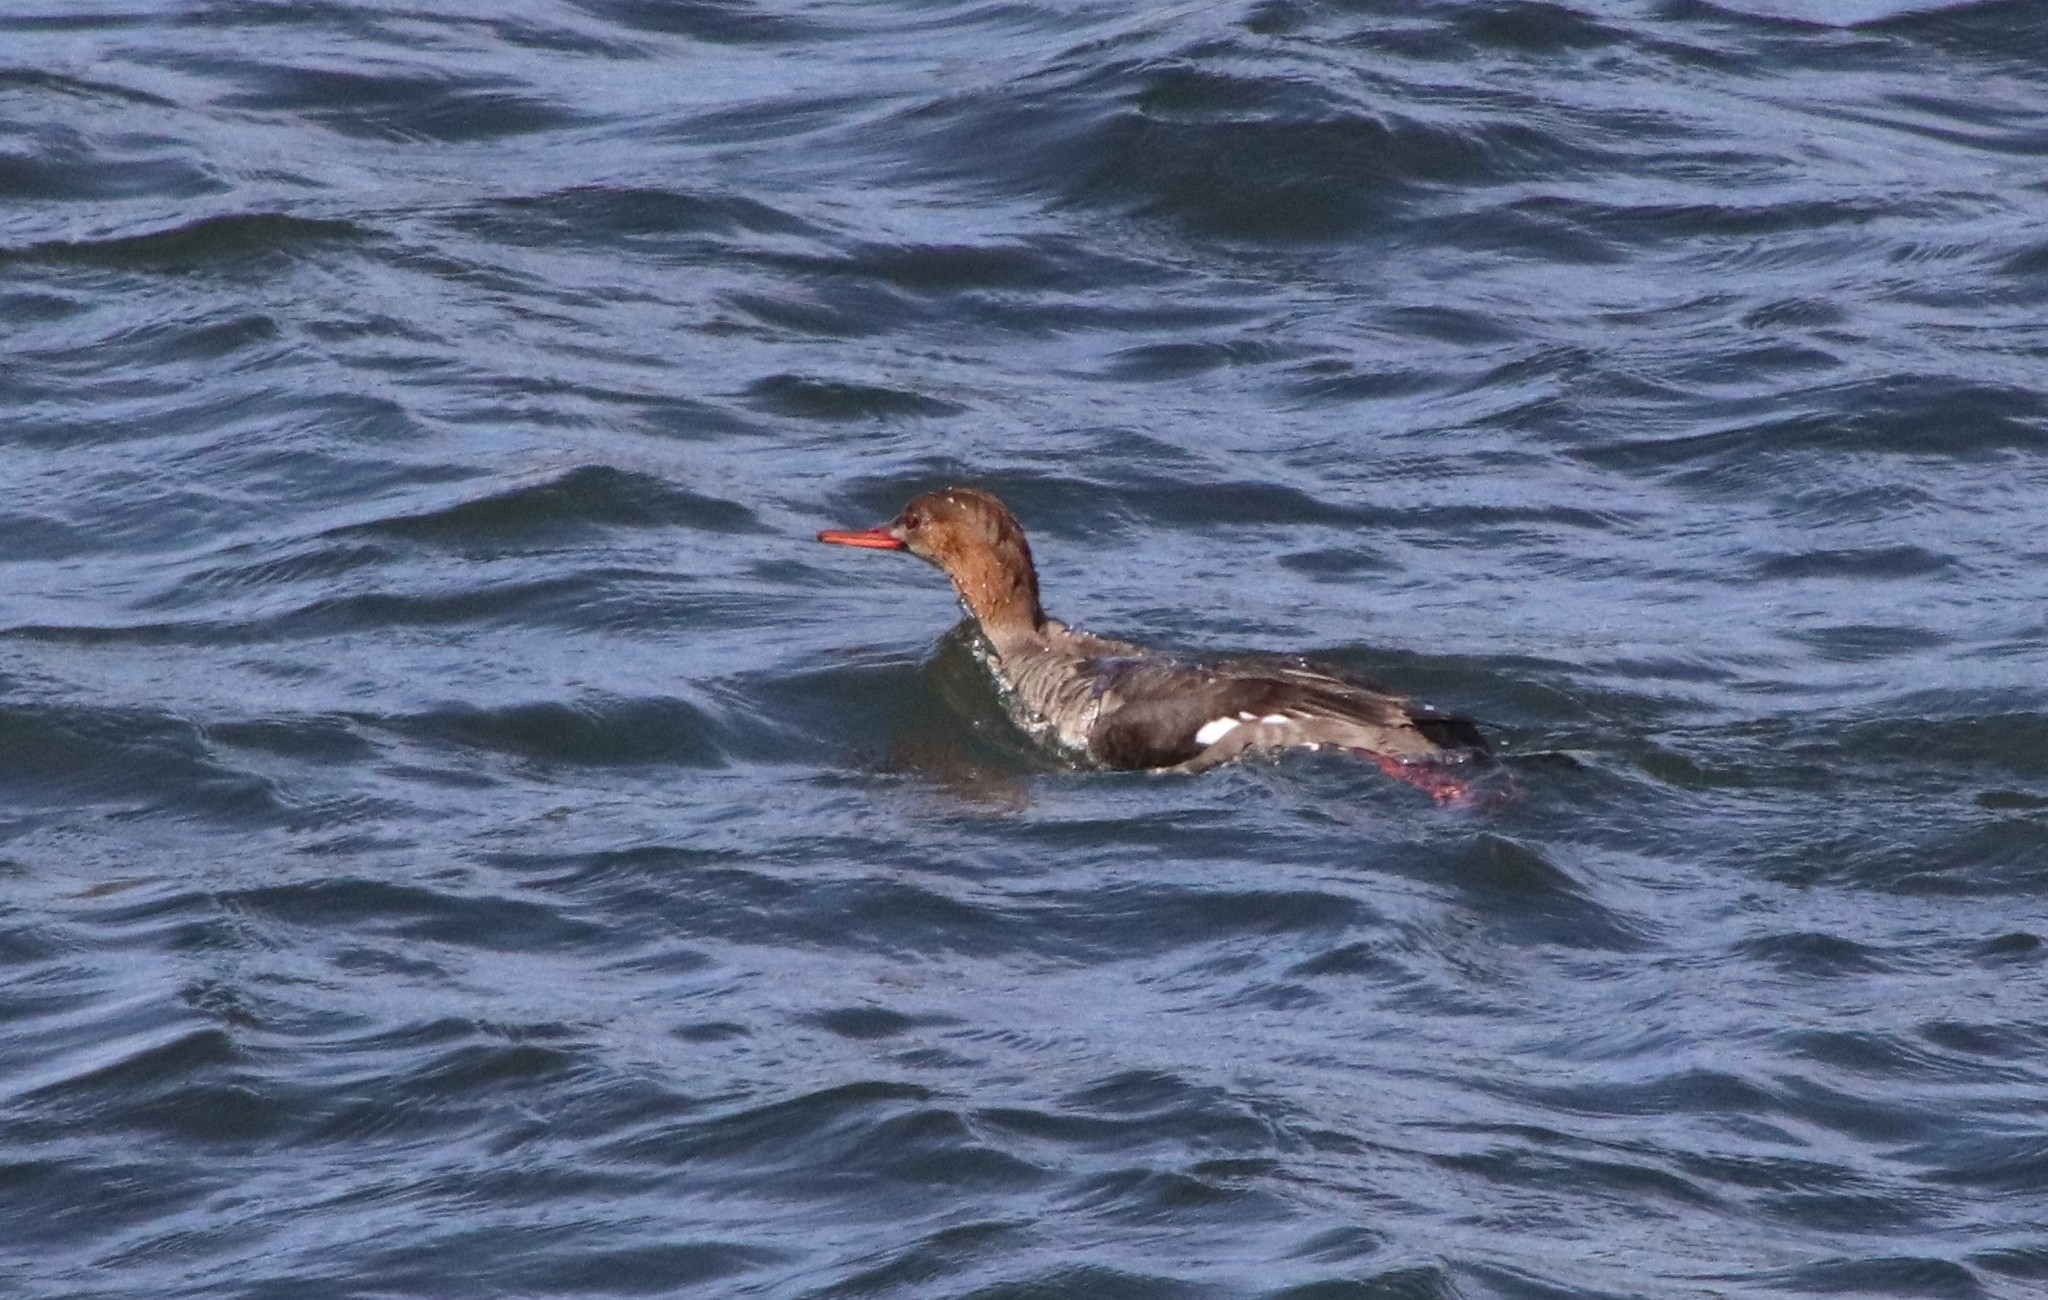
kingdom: Animalia
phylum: Chordata
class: Aves
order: Anseriformes
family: Anatidae
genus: Mergus
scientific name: Mergus serrator
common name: Red-breasted merganser
